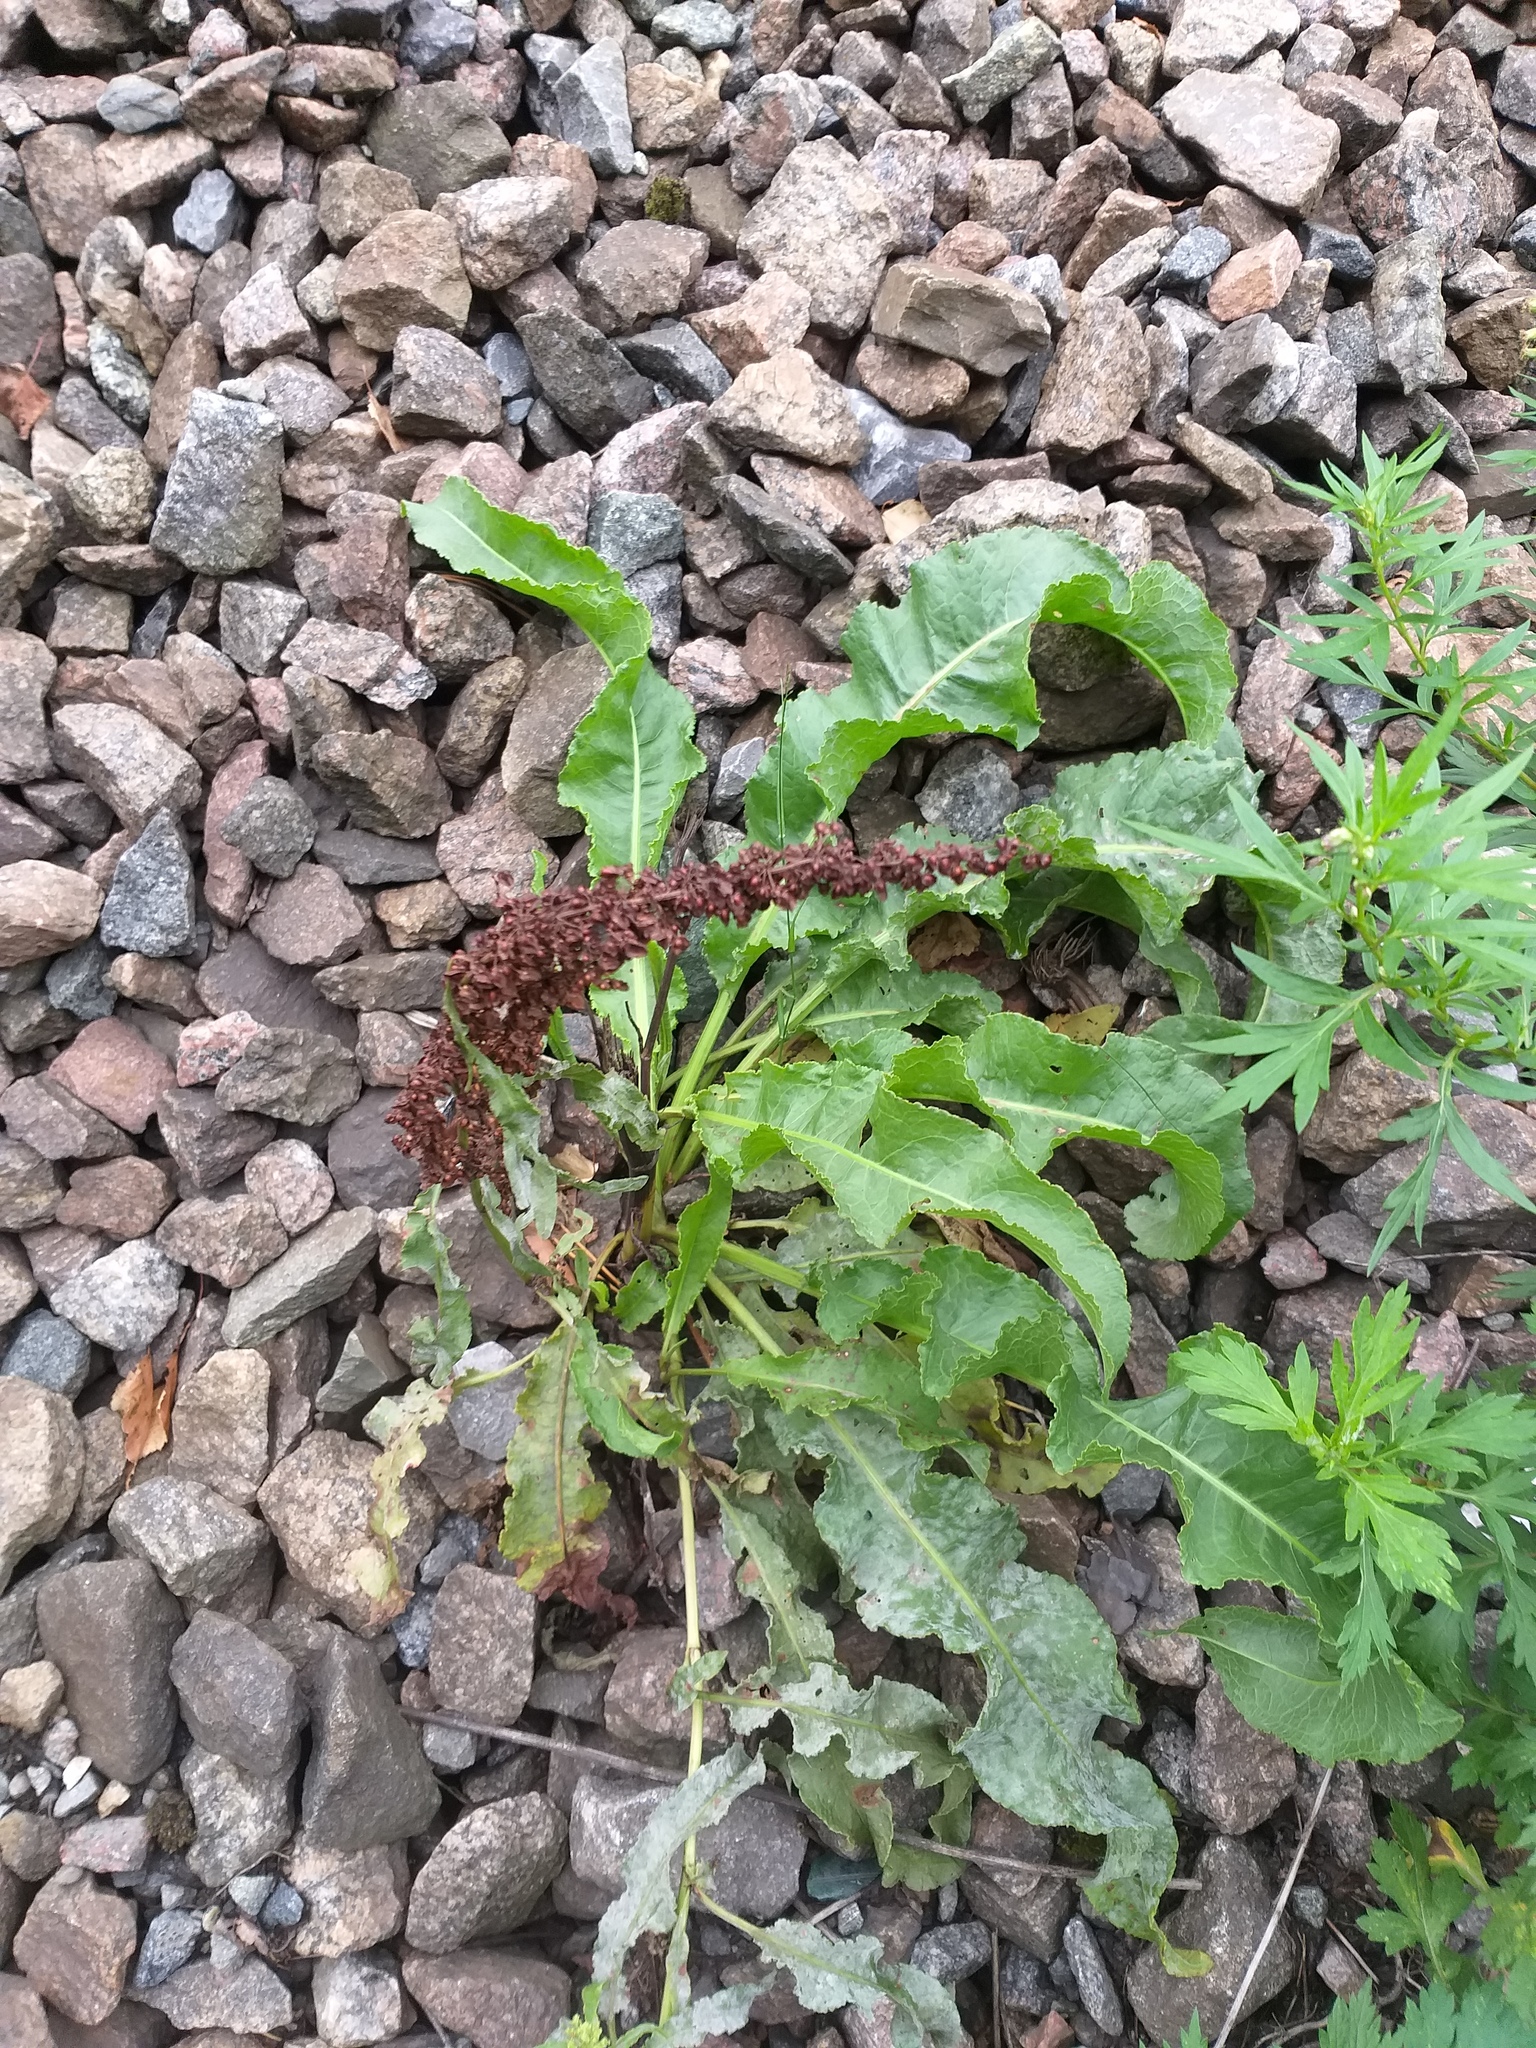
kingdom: Plantae
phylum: Tracheophyta
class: Magnoliopsida
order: Caryophyllales
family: Polygonaceae
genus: Rumex
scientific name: Rumex crispus
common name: Curled dock
